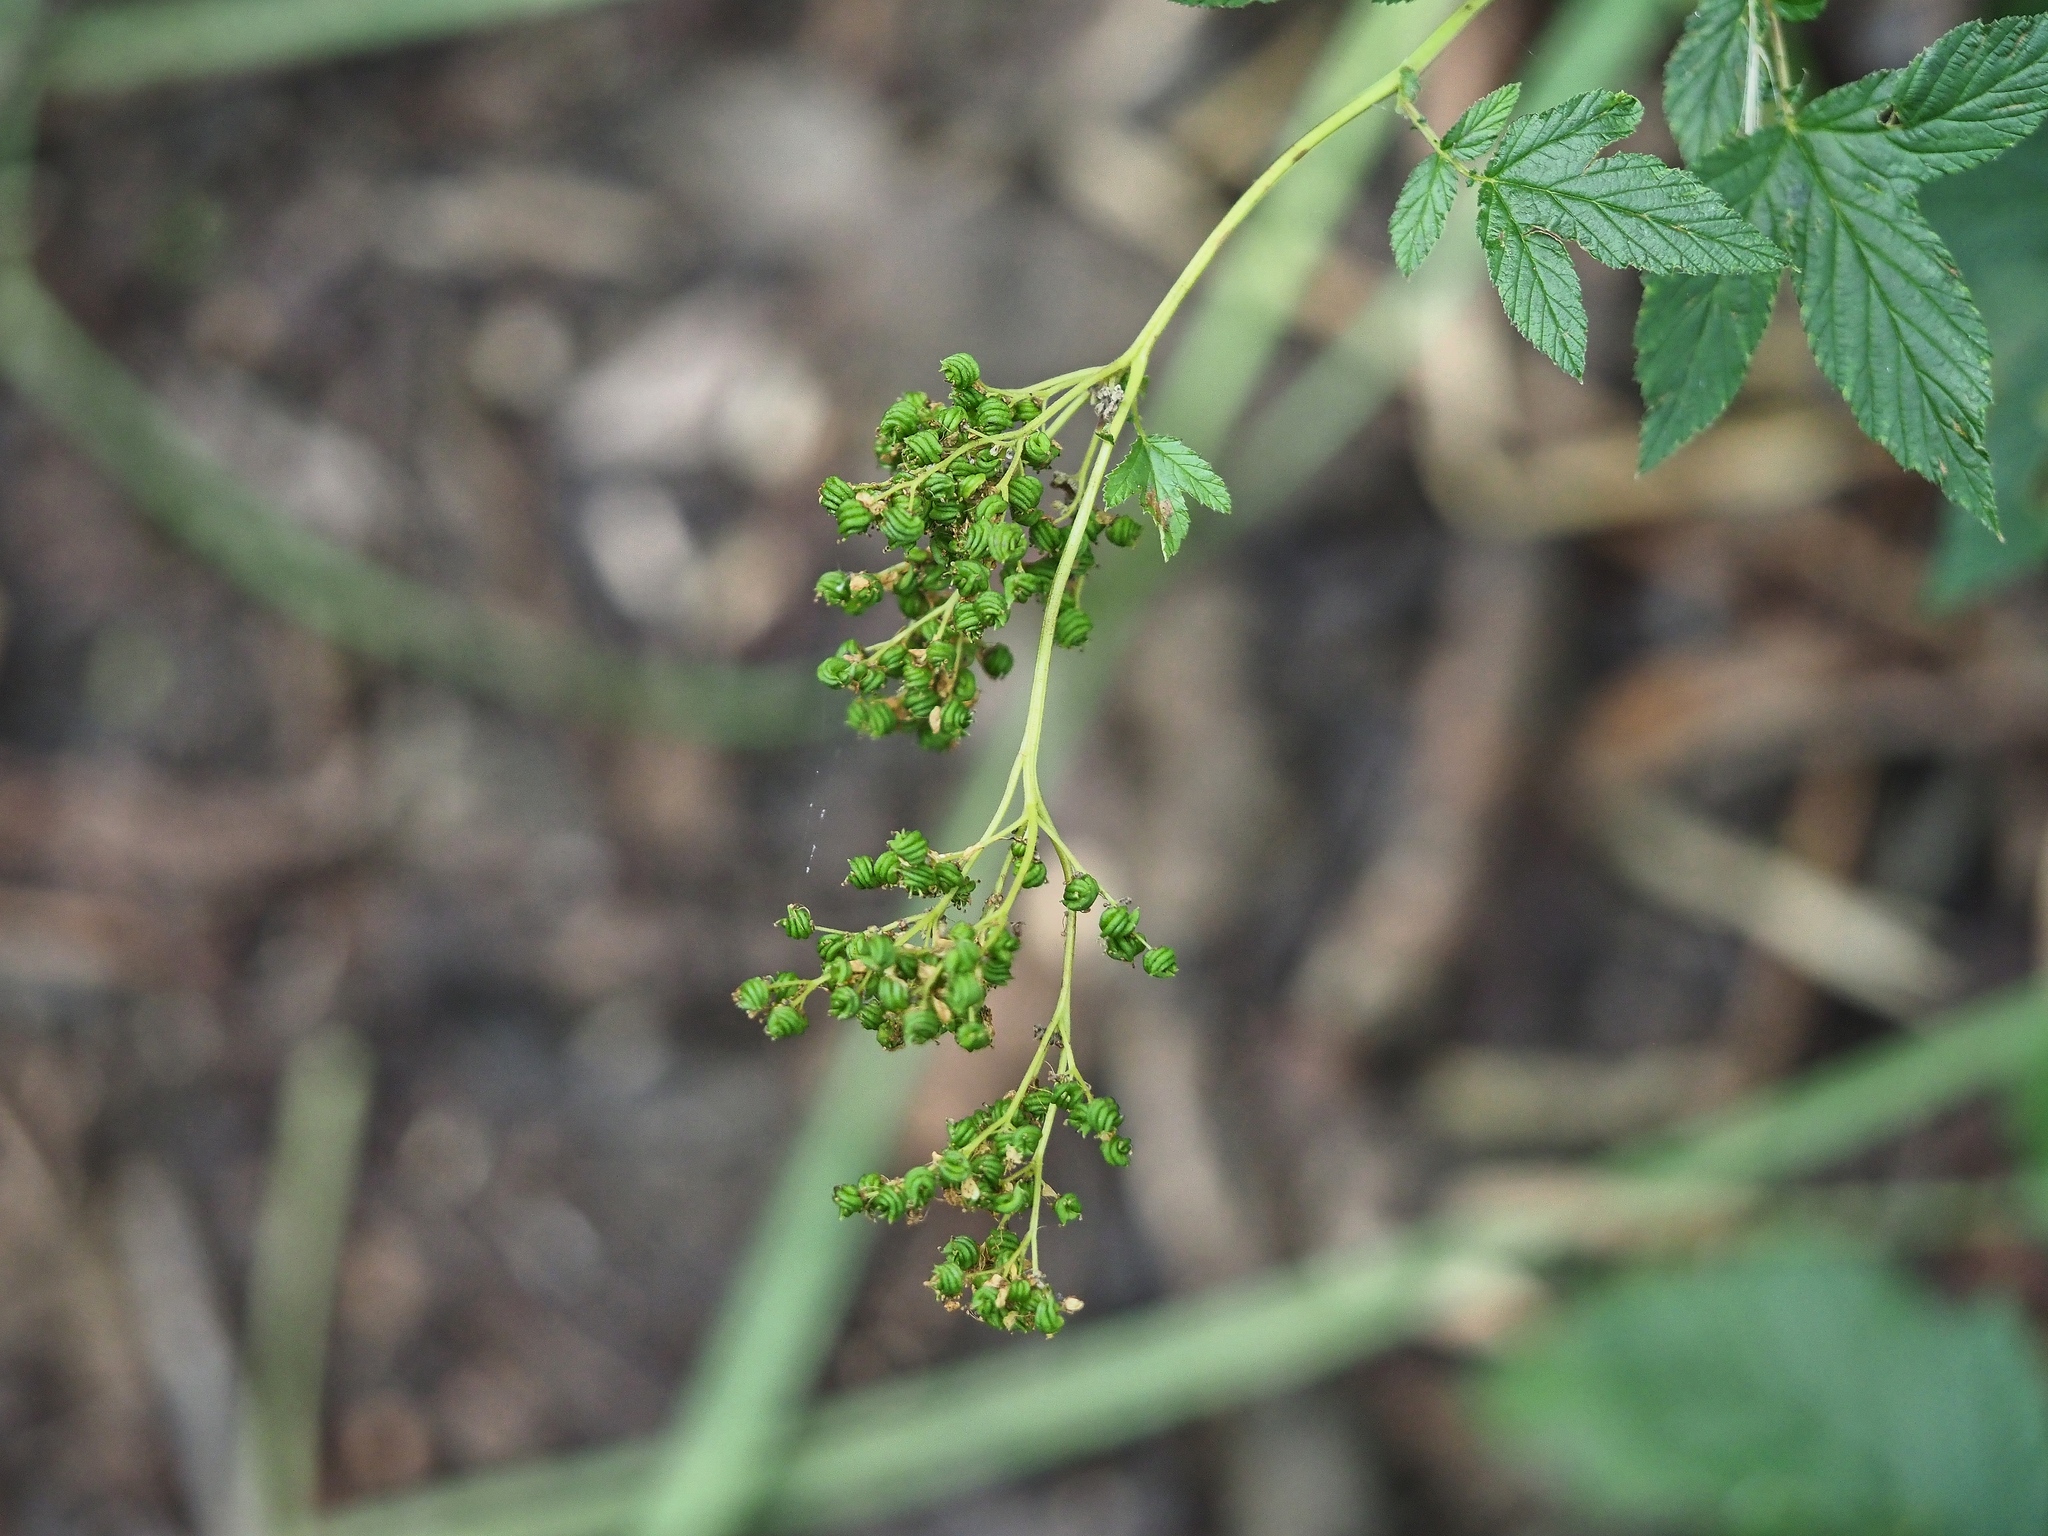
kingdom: Plantae
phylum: Tracheophyta
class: Magnoliopsida
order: Rosales
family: Rosaceae
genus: Filipendula
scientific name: Filipendula ulmaria
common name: Meadowsweet
